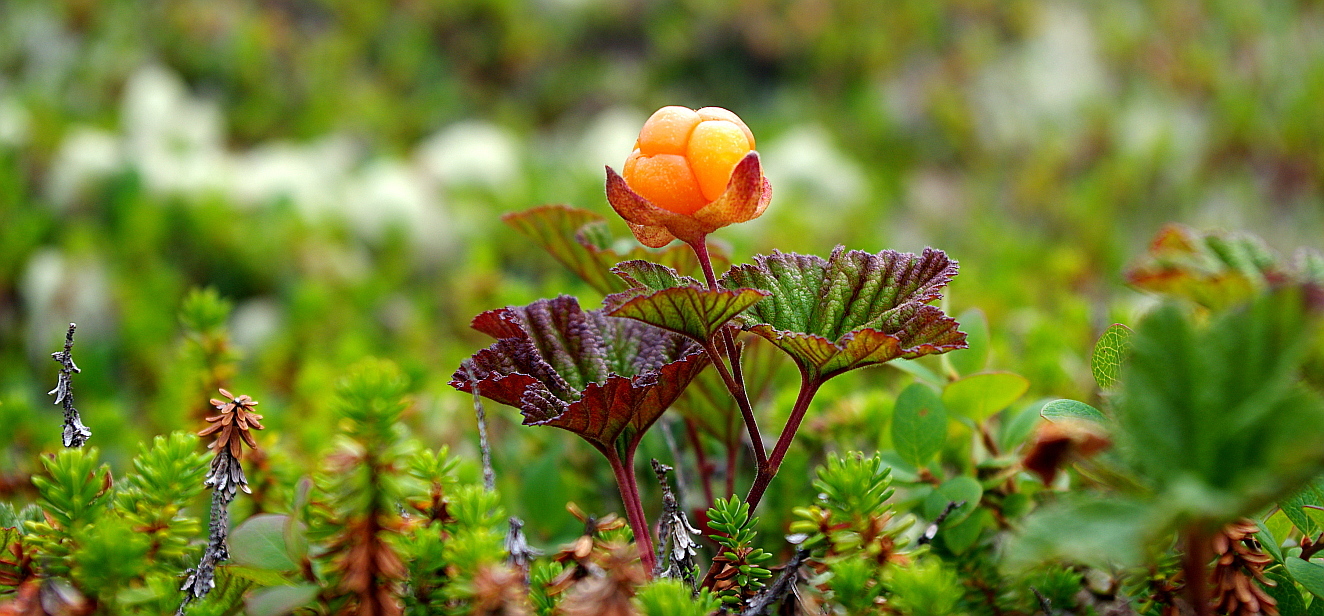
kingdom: Plantae
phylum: Tracheophyta
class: Magnoliopsida
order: Rosales
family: Rosaceae
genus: Rubus
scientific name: Rubus chamaemorus
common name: Cloudberry
